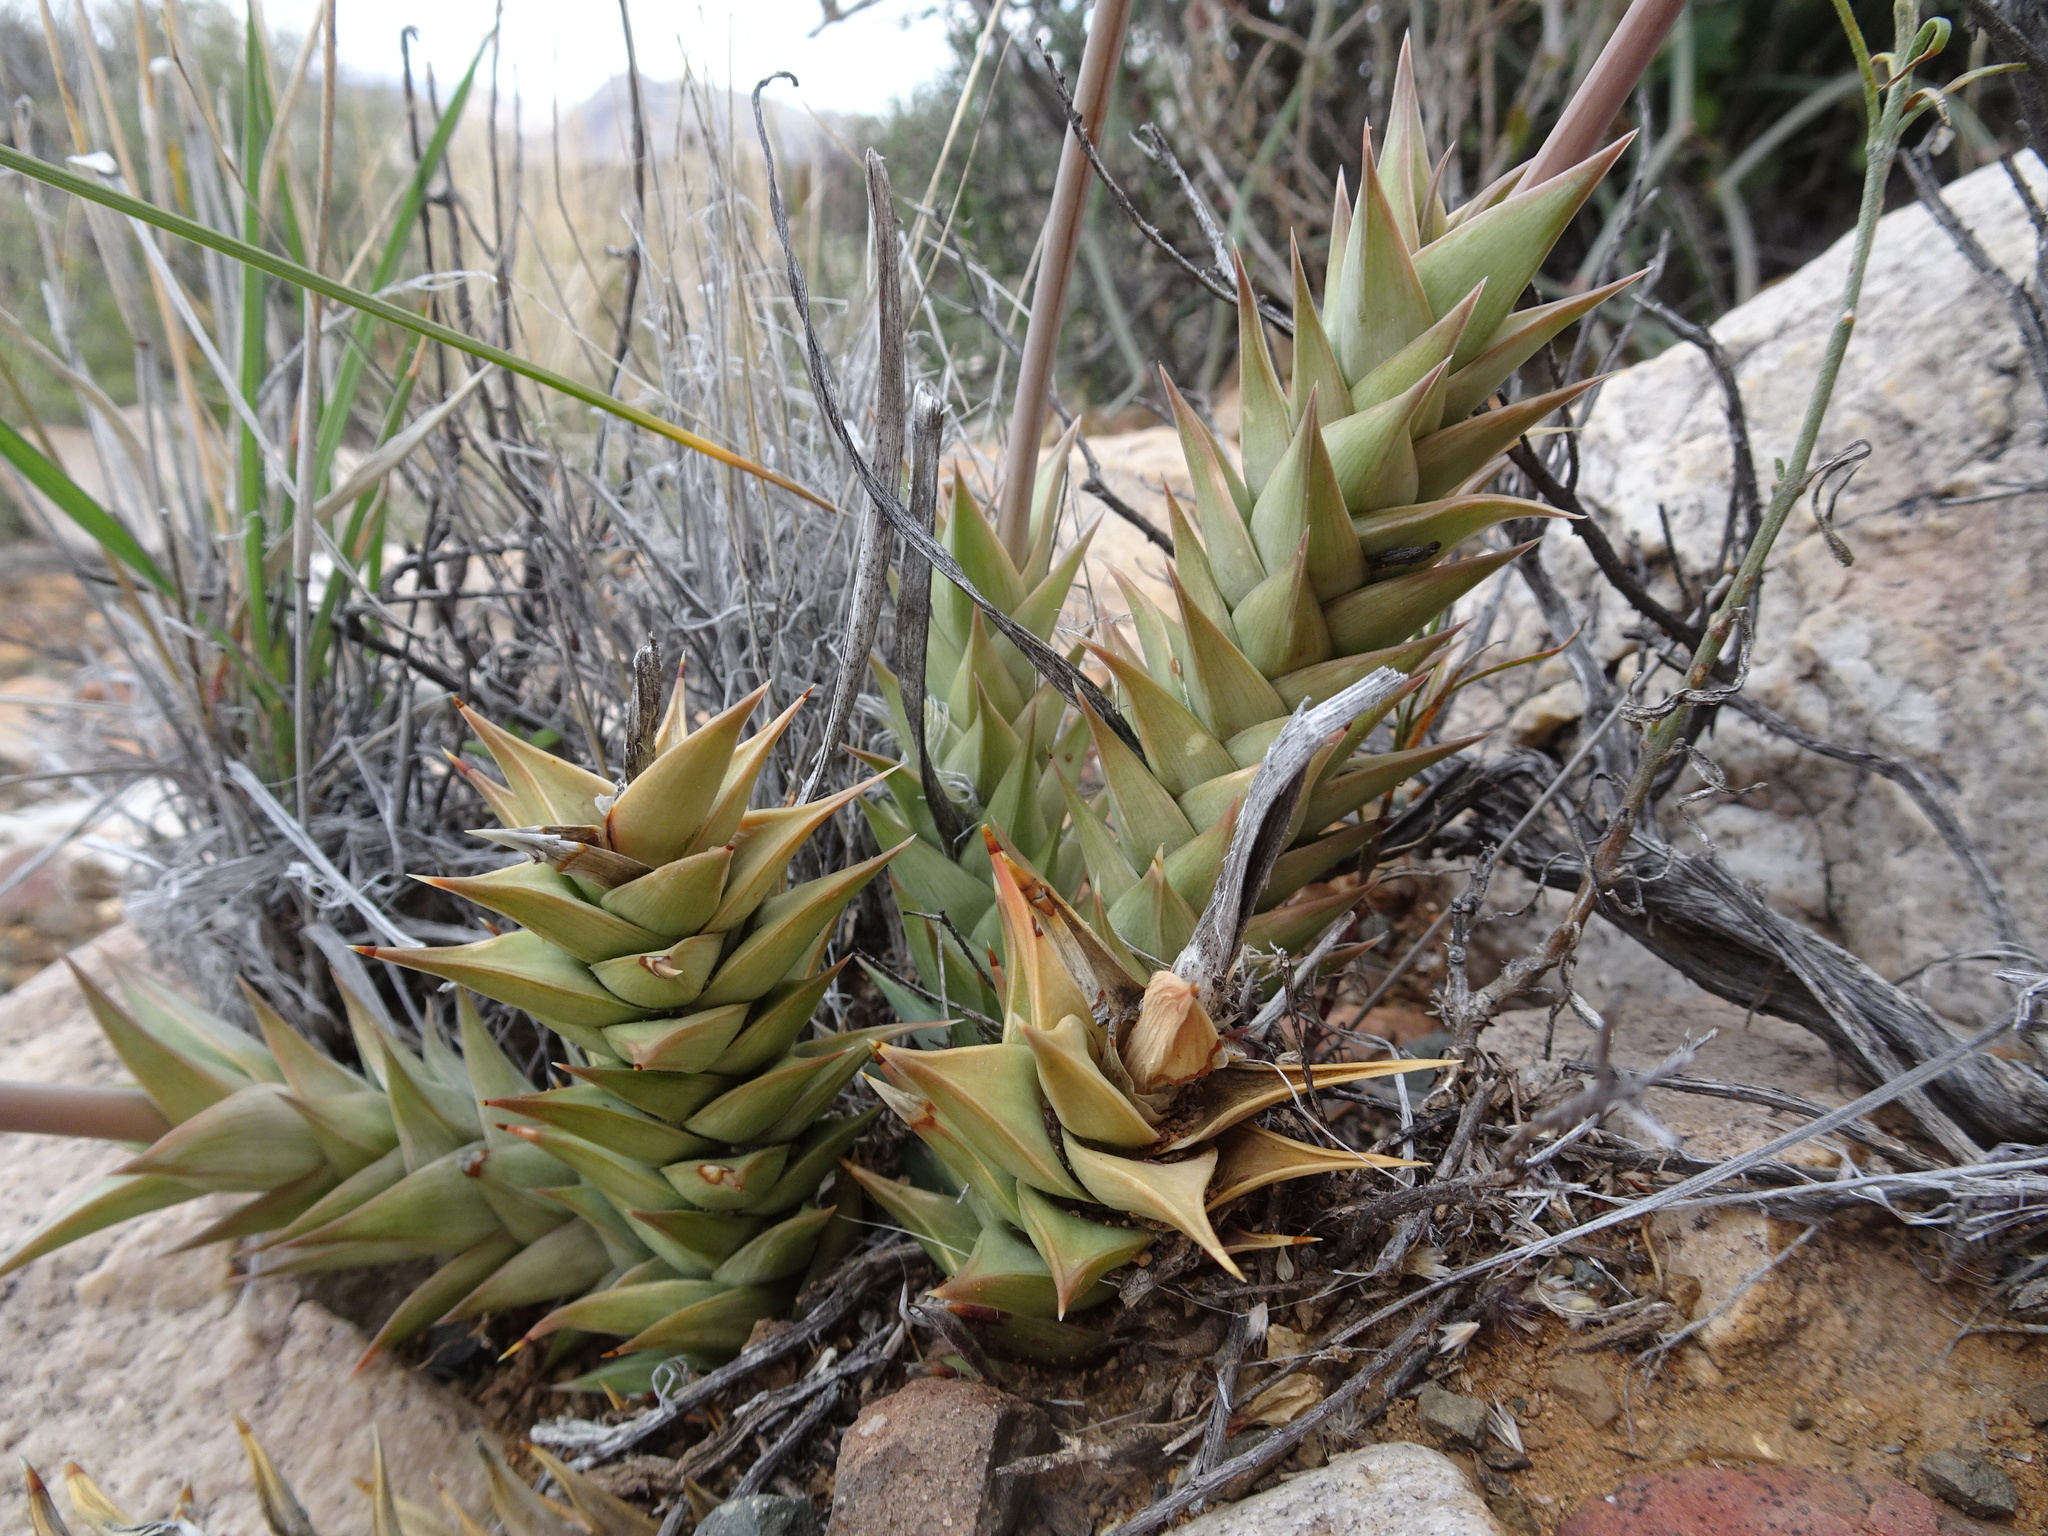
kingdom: Plantae
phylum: Tracheophyta
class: Liliopsida
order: Asparagales
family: Asphodelaceae
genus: Astroloba
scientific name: Astroloba herrei
